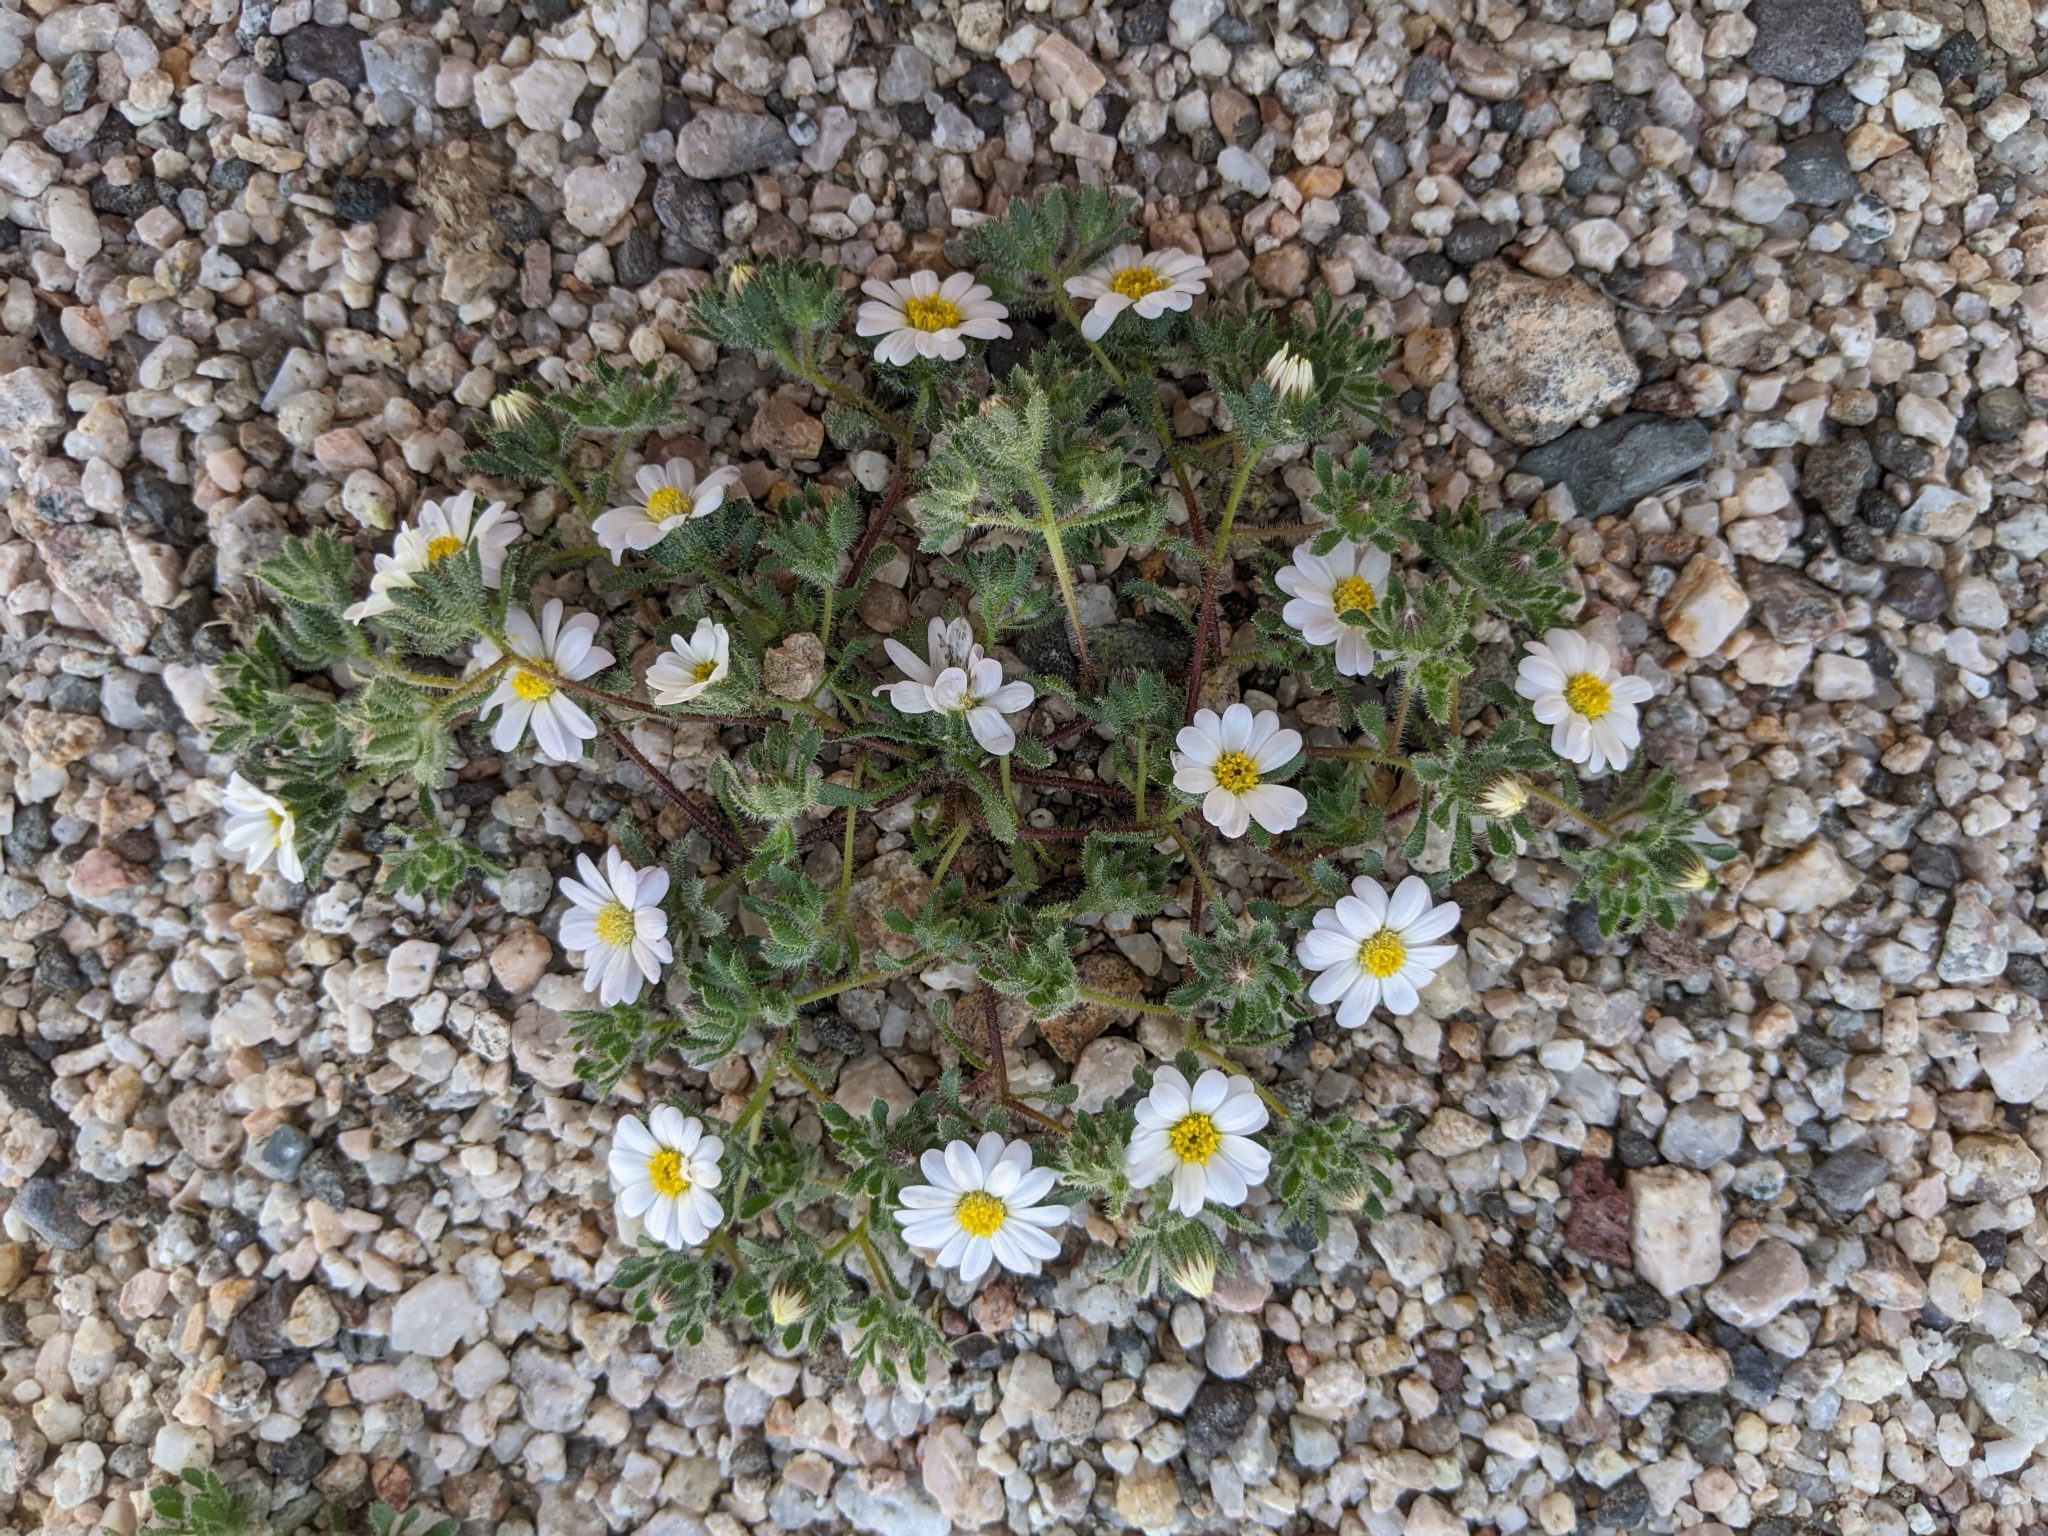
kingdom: Plantae
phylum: Tracheophyta
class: Magnoliopsida
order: Asterales
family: Asteraceae
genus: Monoptilon
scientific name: Monoptilon bellioides
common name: Bristly desertstar
